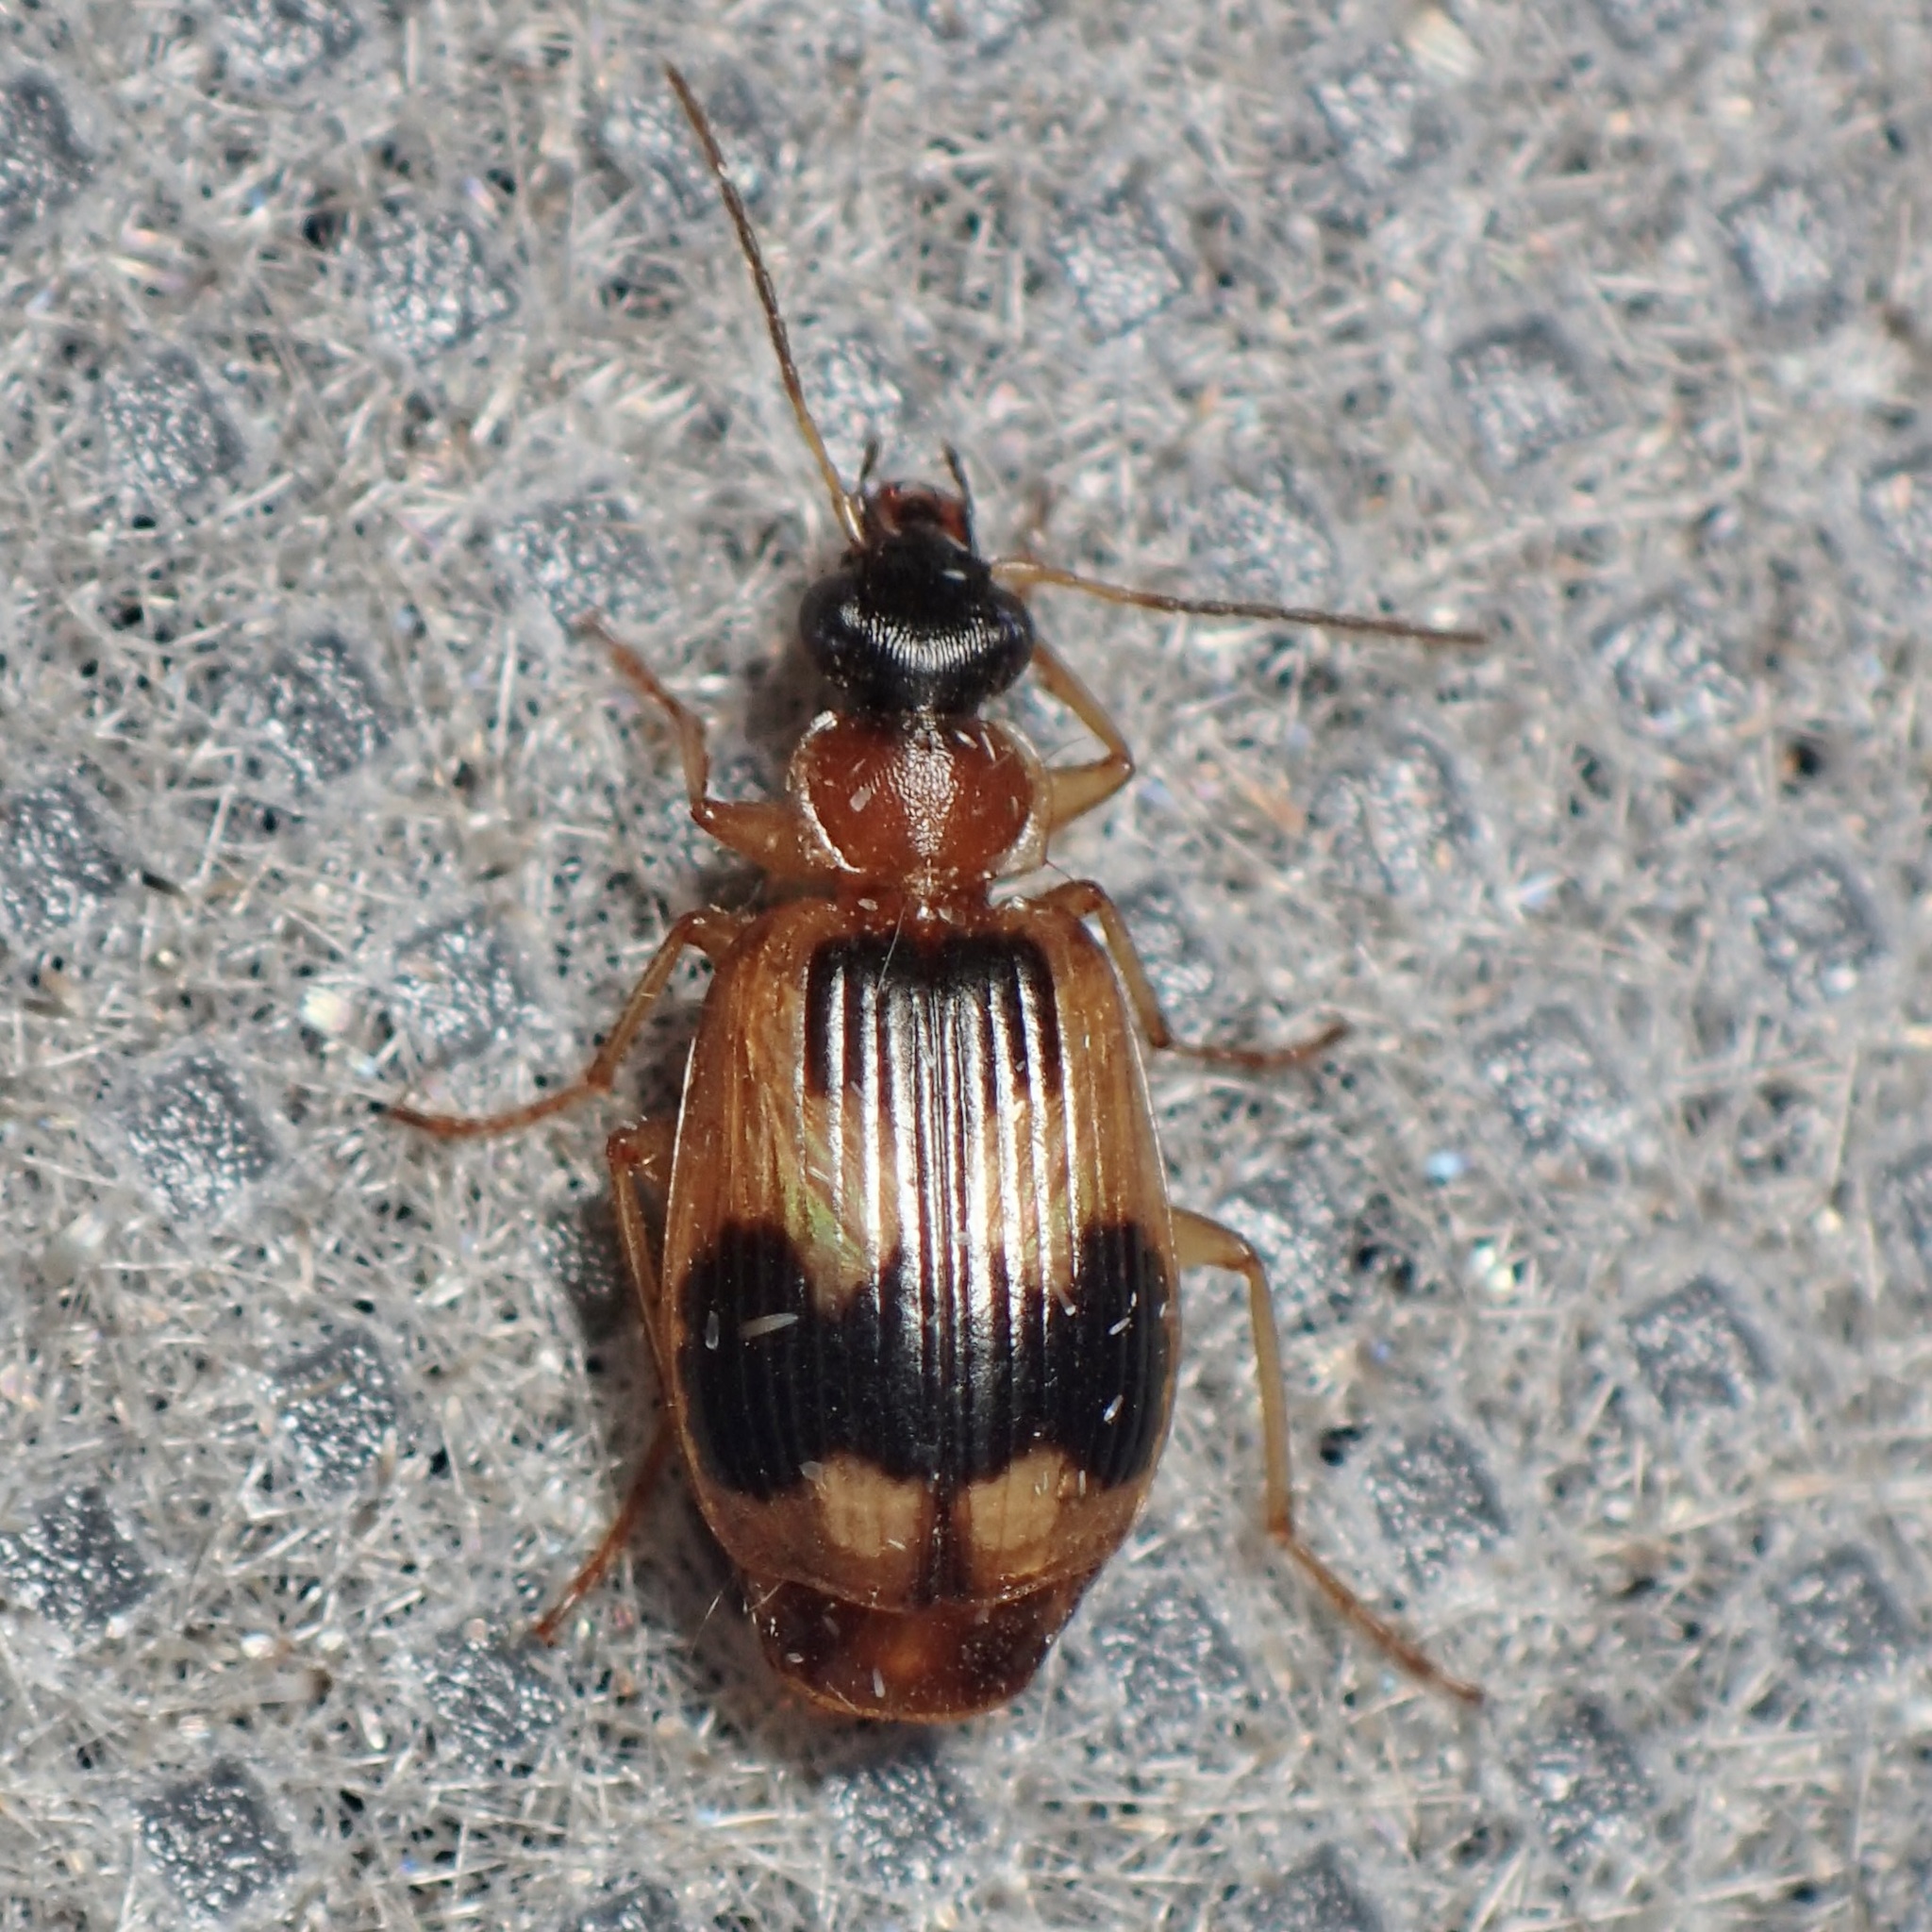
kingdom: Animalia
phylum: Arthropoda
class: Insecta
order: Coleoptera
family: Carabidae
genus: Lebia
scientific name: Lebia analis
